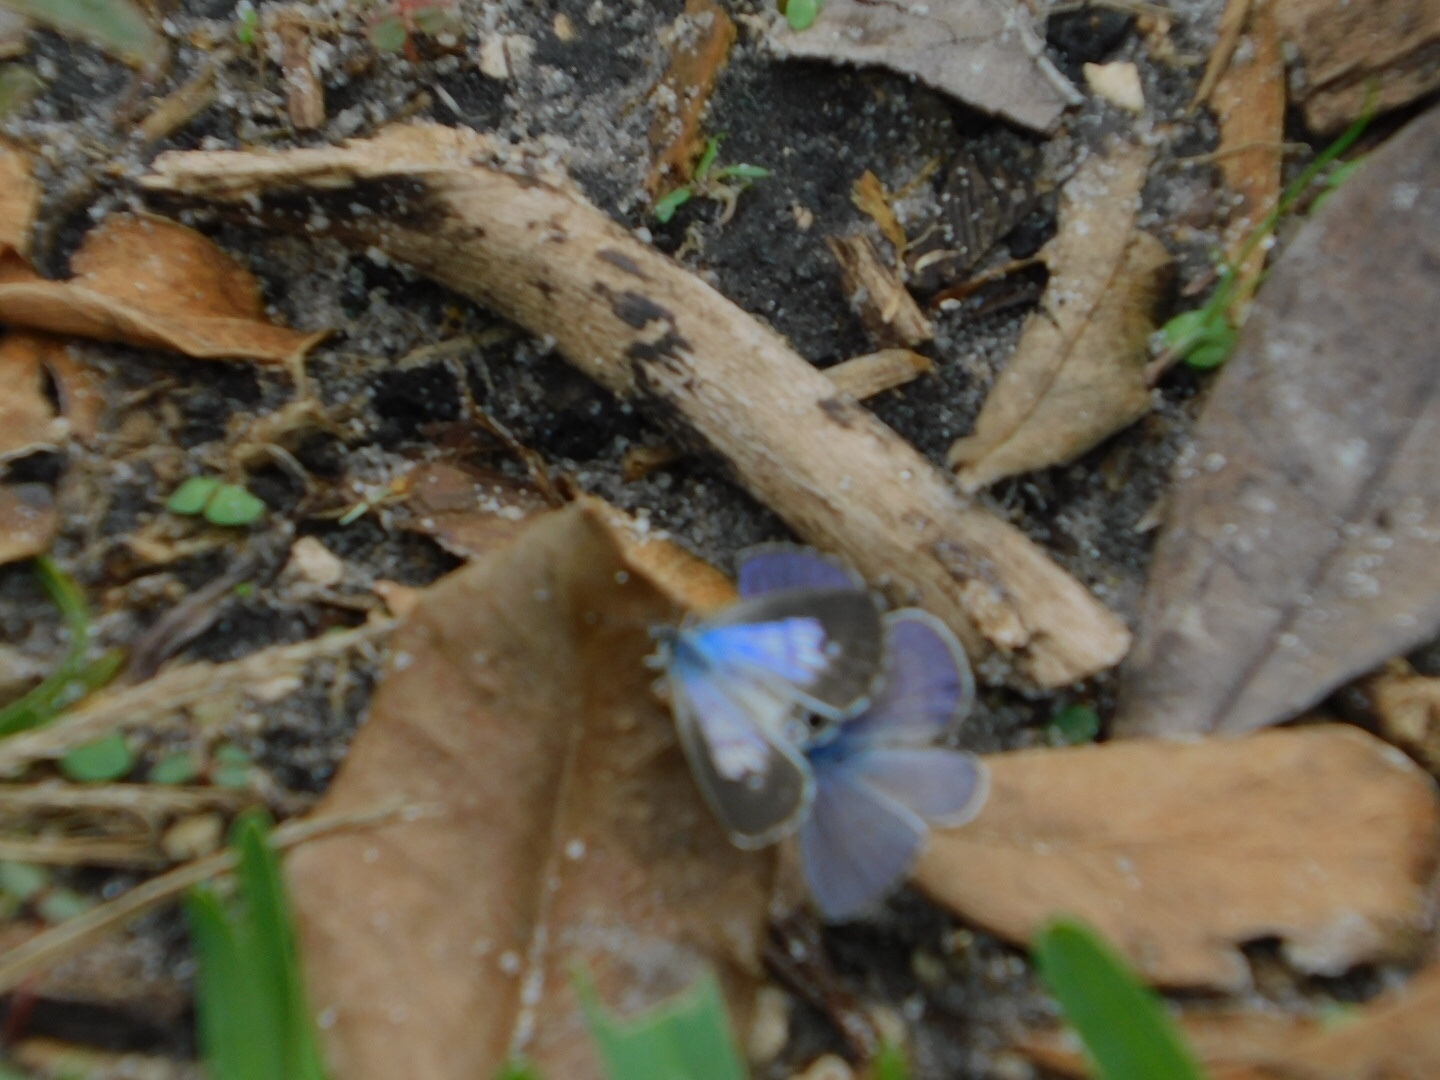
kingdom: Animalia
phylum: Arthropoda
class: Insecta
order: Lepidoptera
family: Lycaenidae
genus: Leptotes
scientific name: Leptotes cassius
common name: Cassius blue
